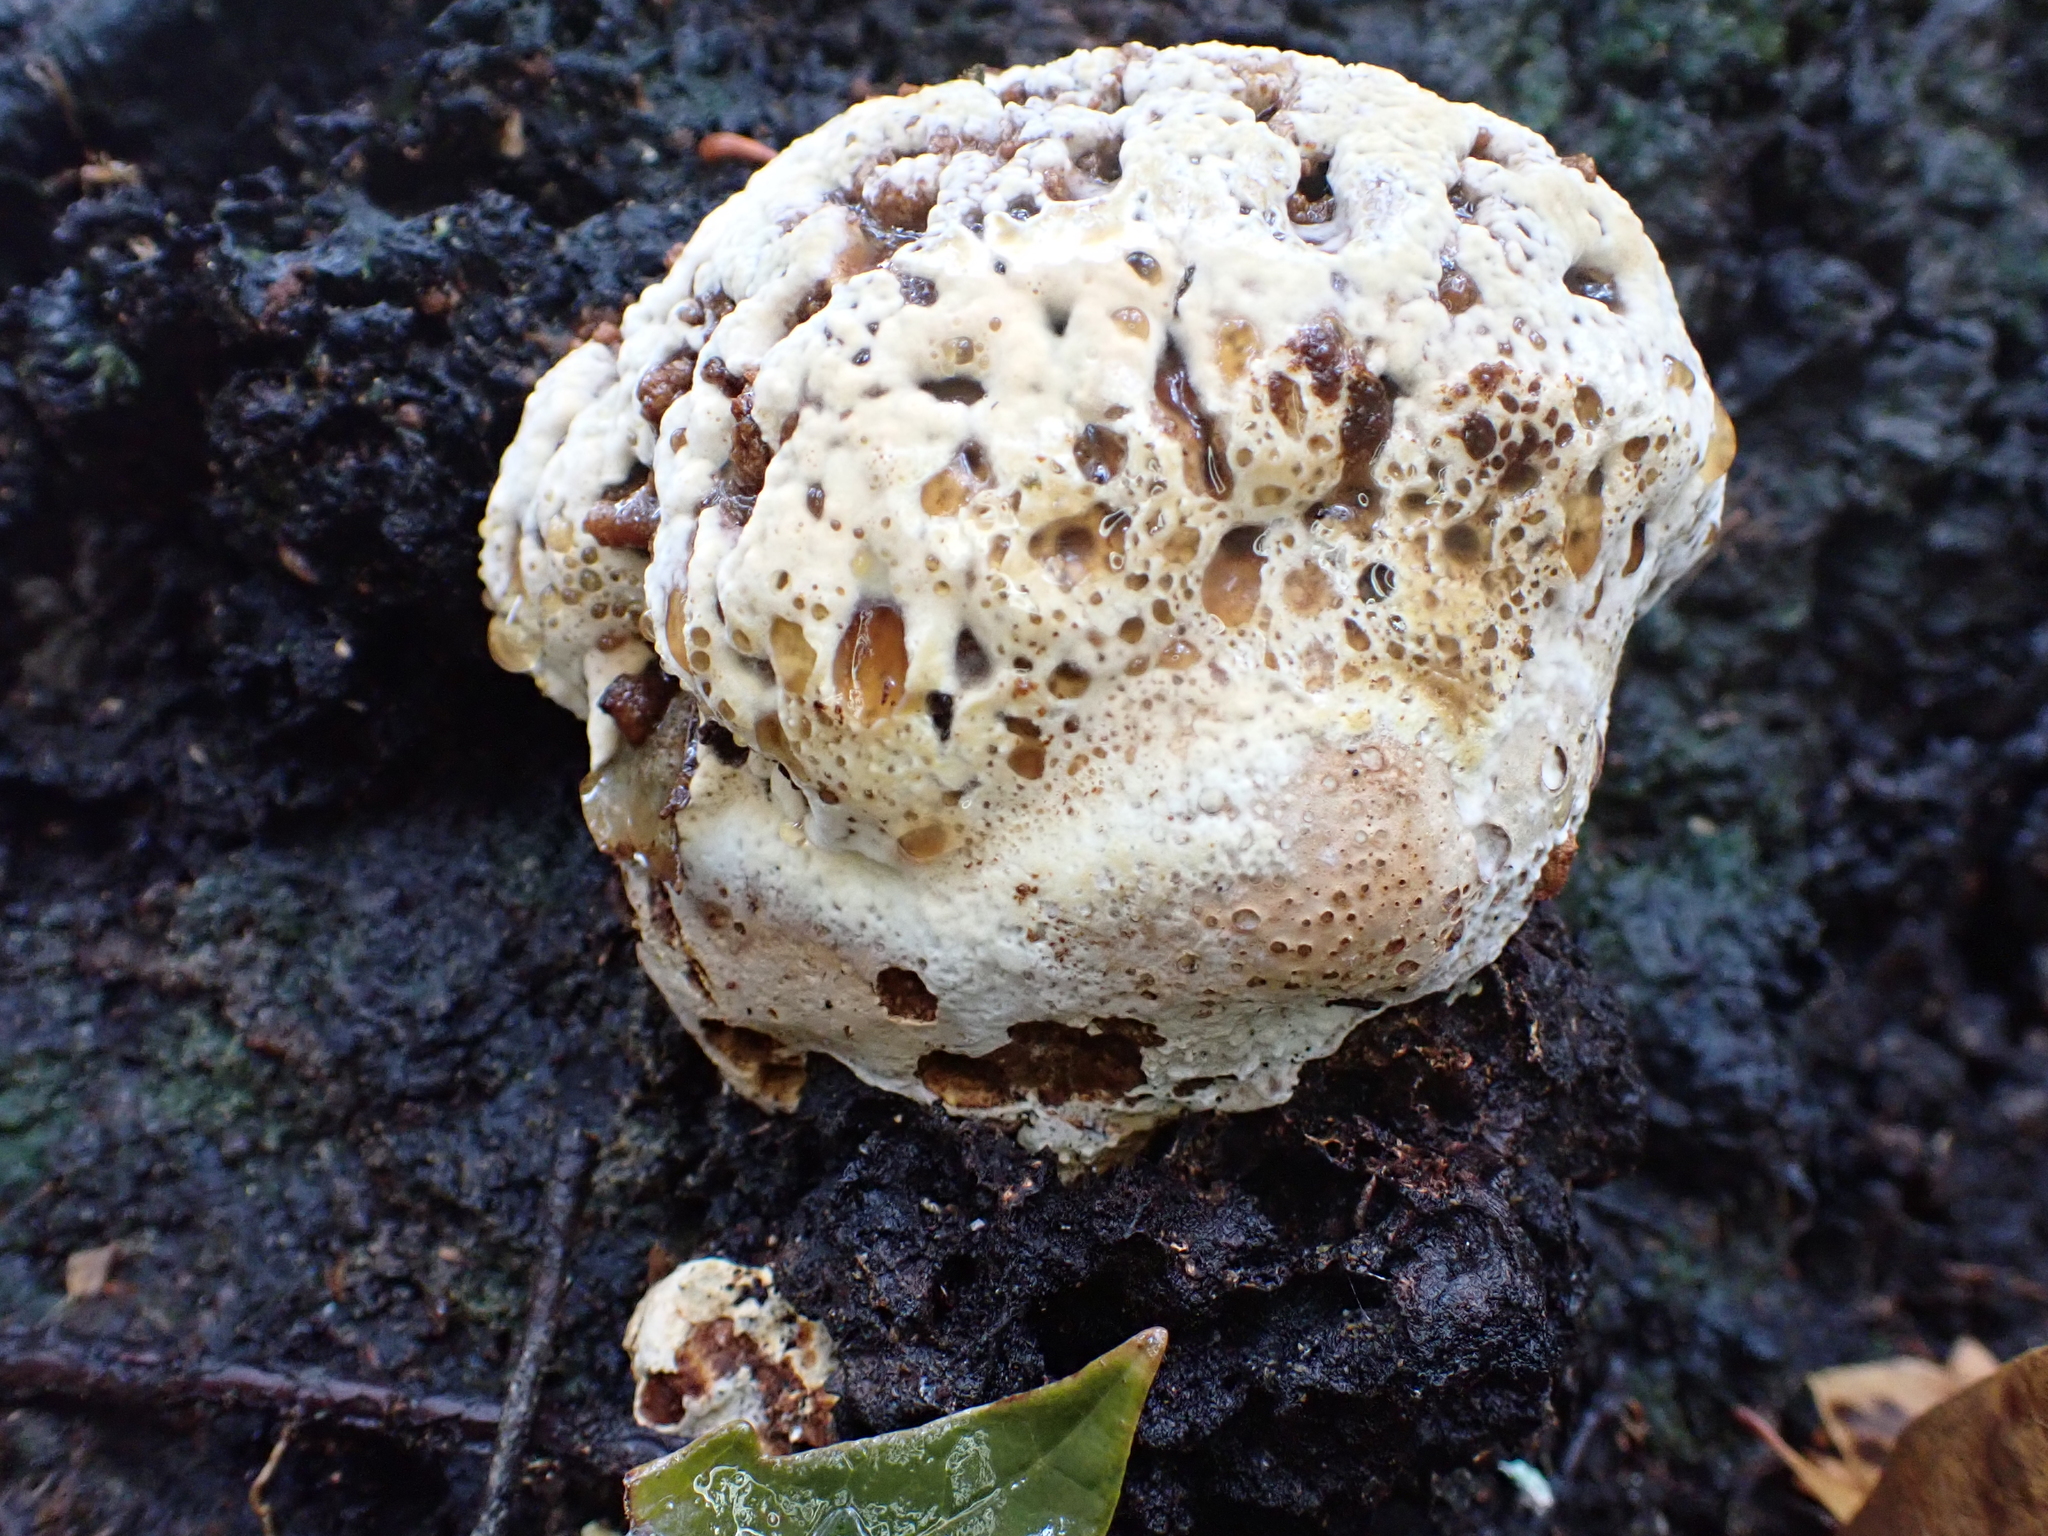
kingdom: Fungi
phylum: Basidiomycota
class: Agaricomycetes
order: Hymenochaetales
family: Hymenochaetaceae
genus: Pseudoinonotus
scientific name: Pseudoinonotus dryadeus
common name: Oak bracket
